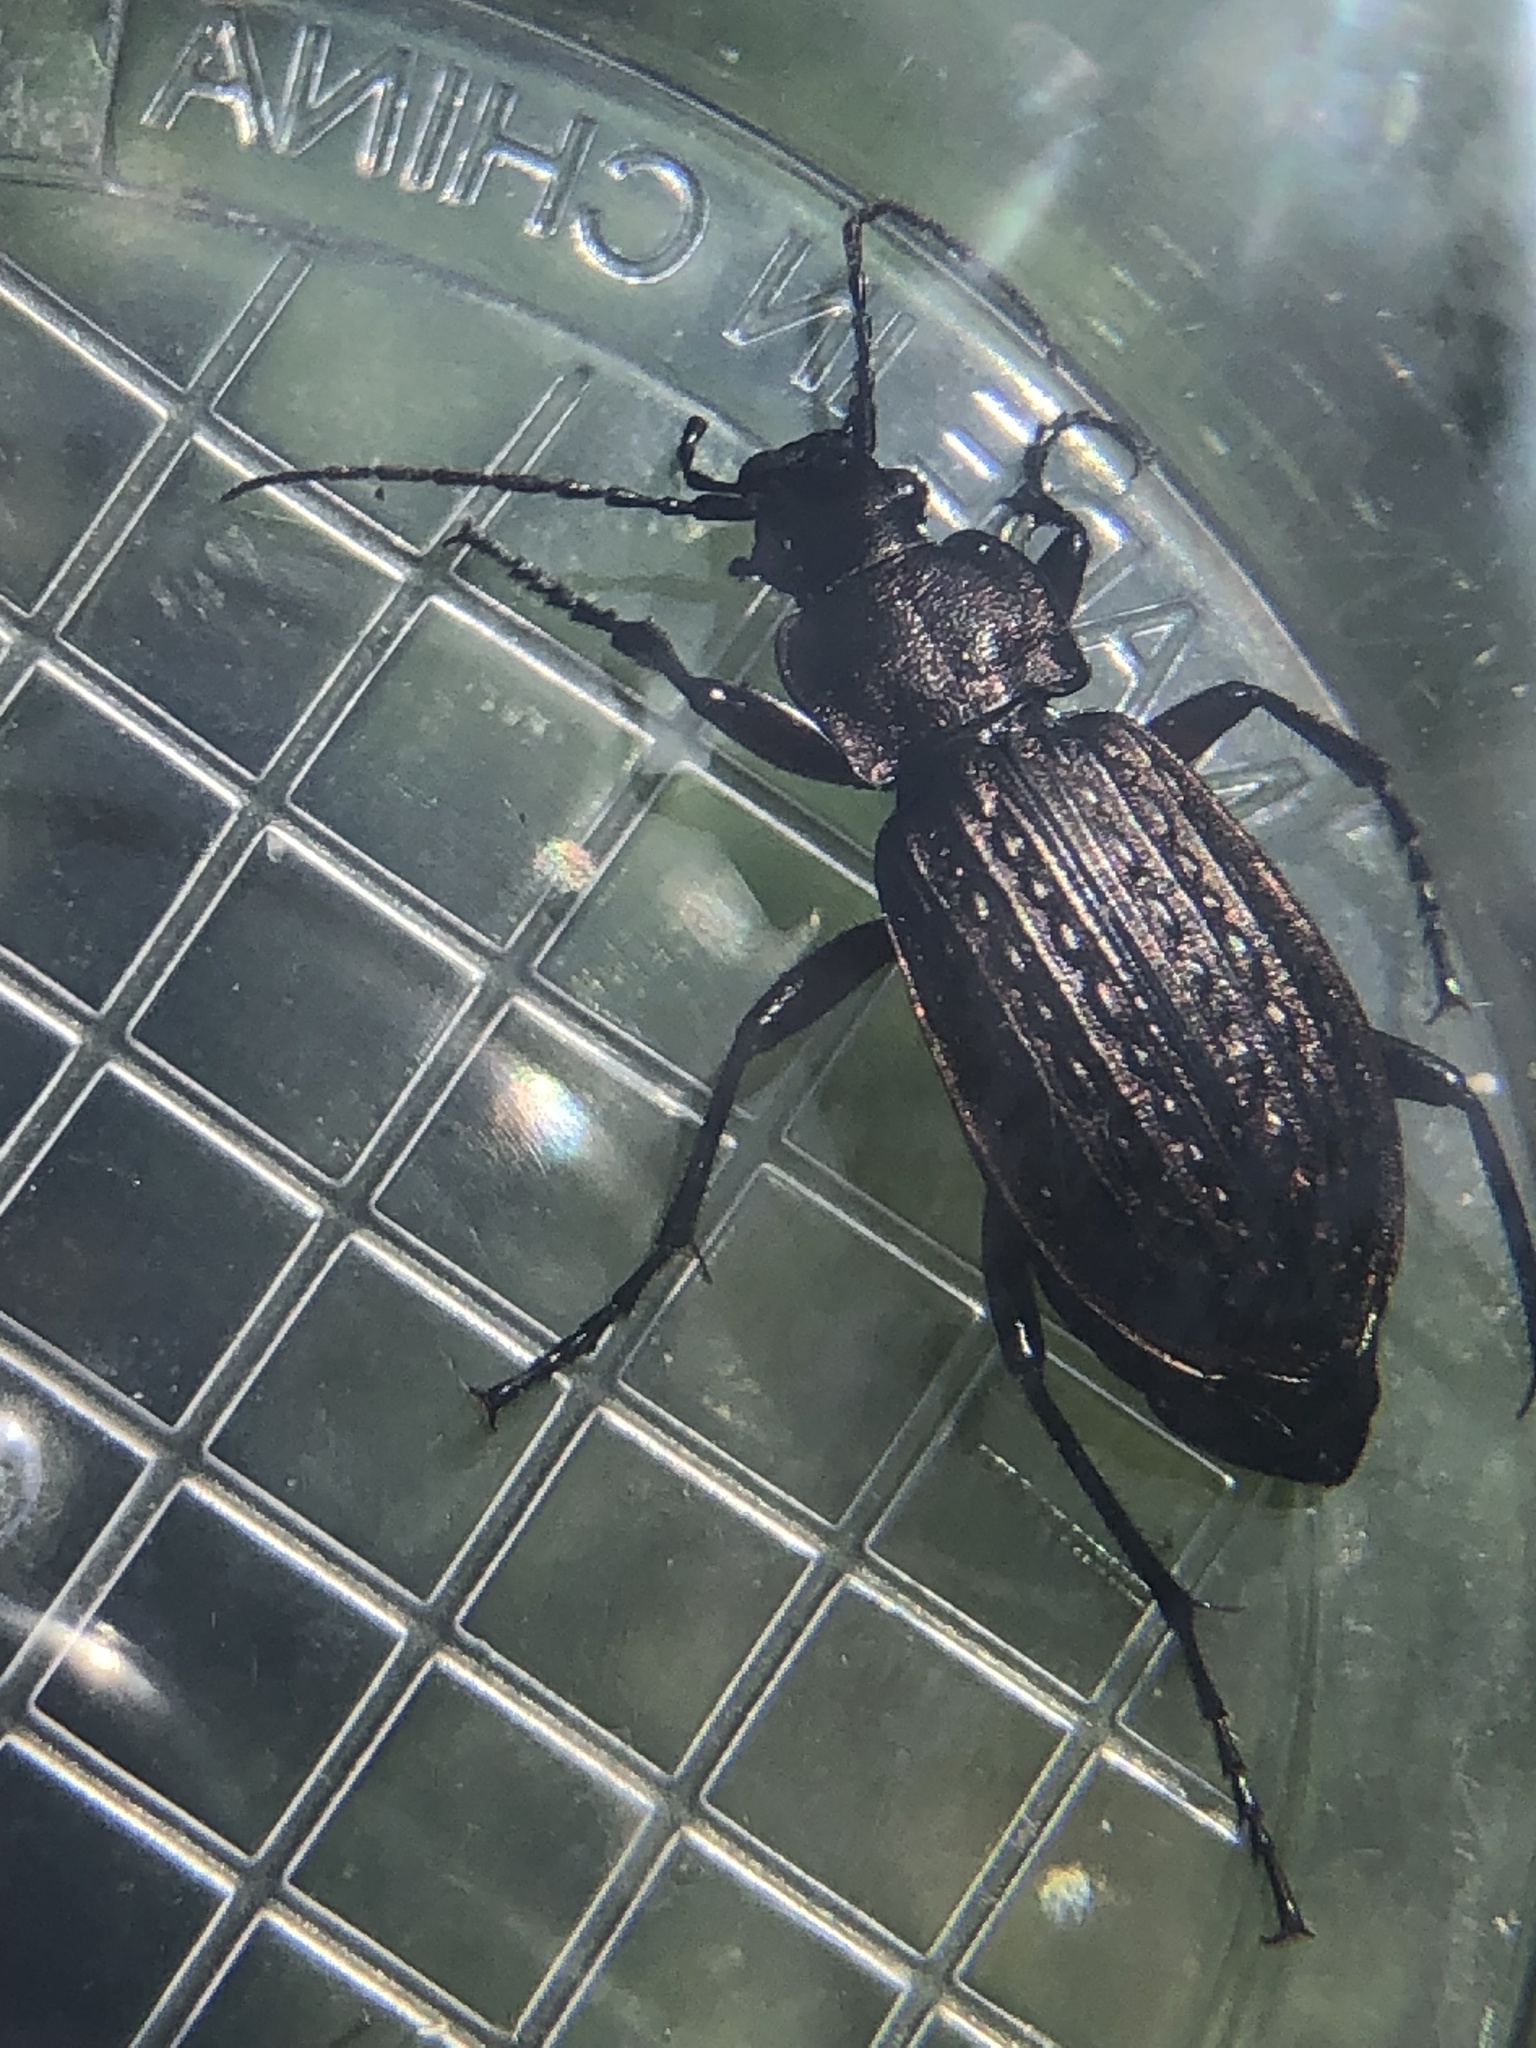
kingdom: Animalia
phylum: Arthropoda
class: Insecta
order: Coleoptera
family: Carabidae
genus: Carabus
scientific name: Carabus granulatus
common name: Granulate ground beetle
